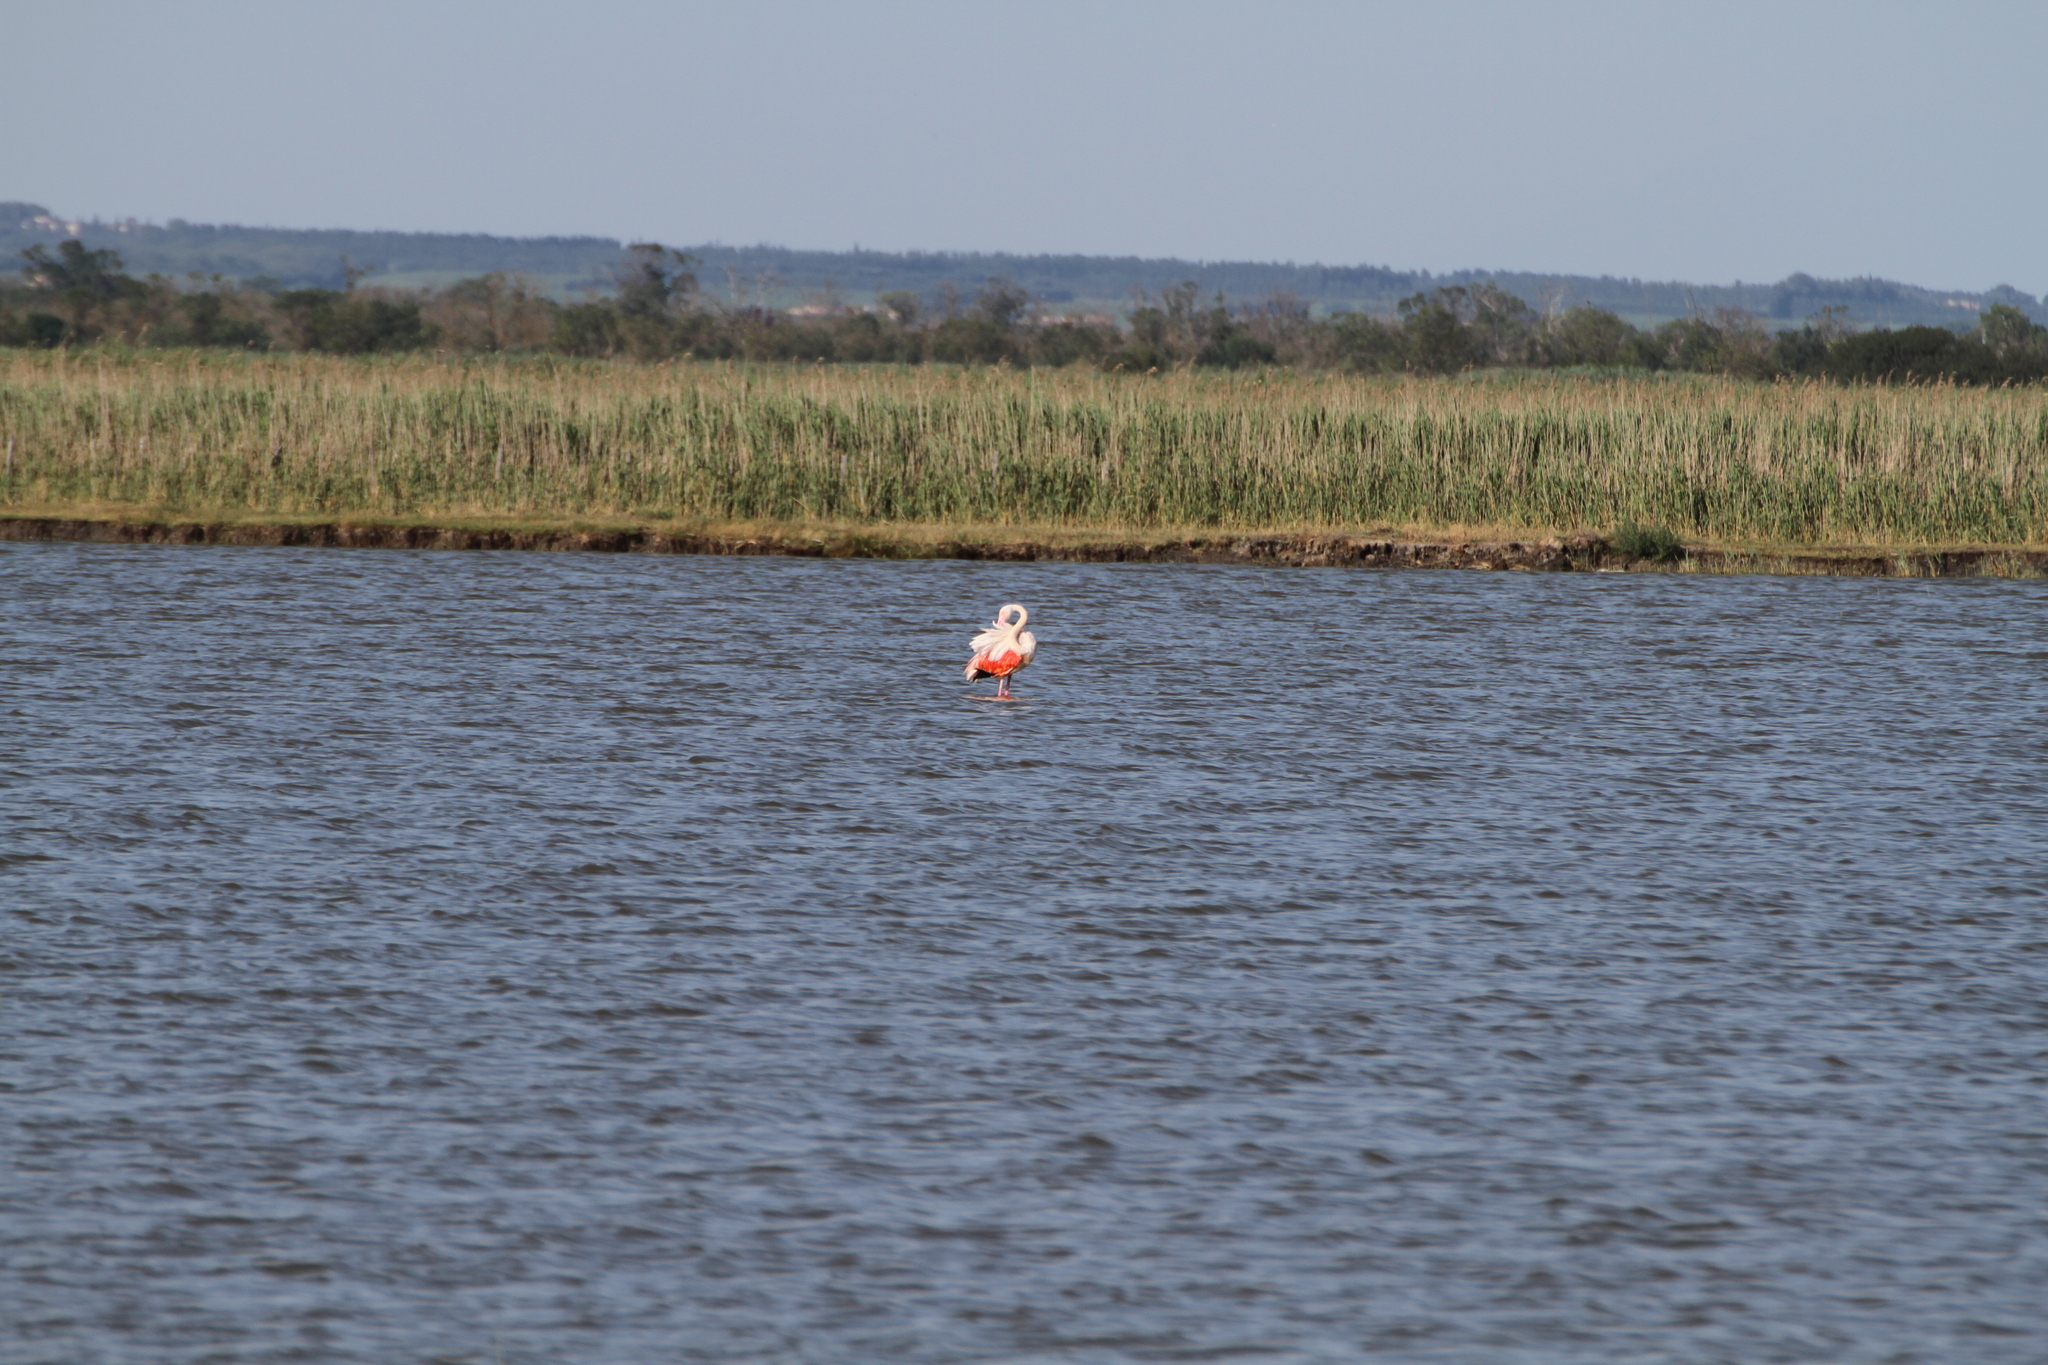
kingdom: Animalia
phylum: Chordata
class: Aves
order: Phoenicopteriformes
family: Phoenicopteridae
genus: Phoenicopterus
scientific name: Phoenicopterus roseus
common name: Greater flamingo
